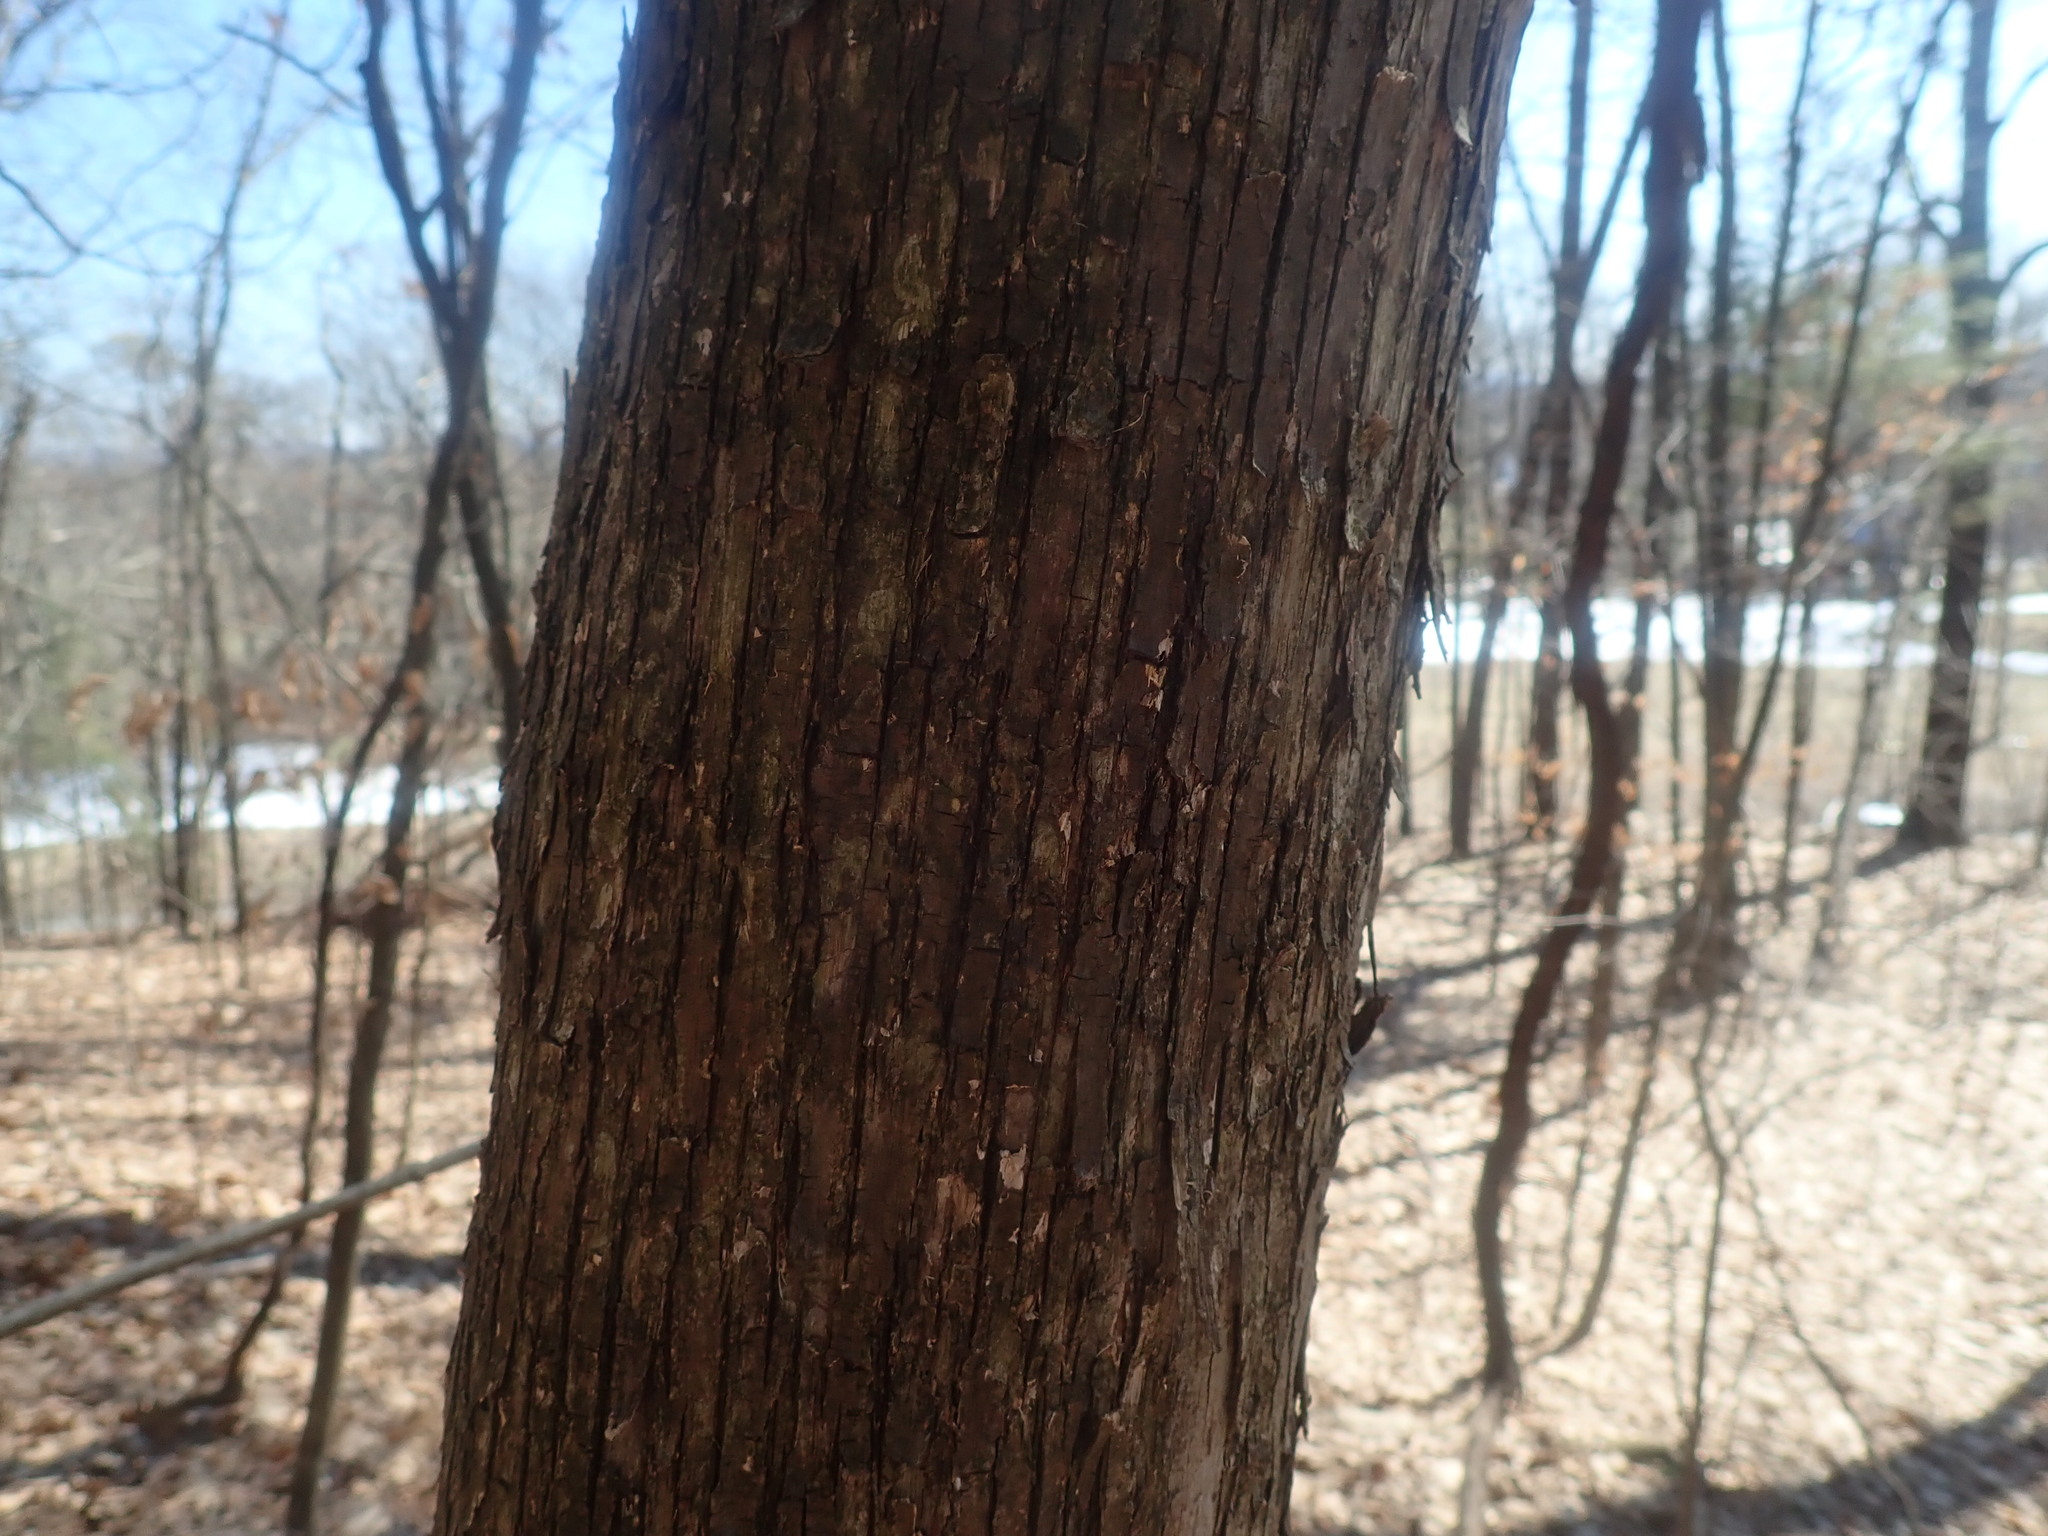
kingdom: Plantae
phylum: Tracheophyta
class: Magnoliopsida
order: Fagales
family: Betulaceae
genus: Ostrya
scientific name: Ostrya virginiana
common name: Ironwood
